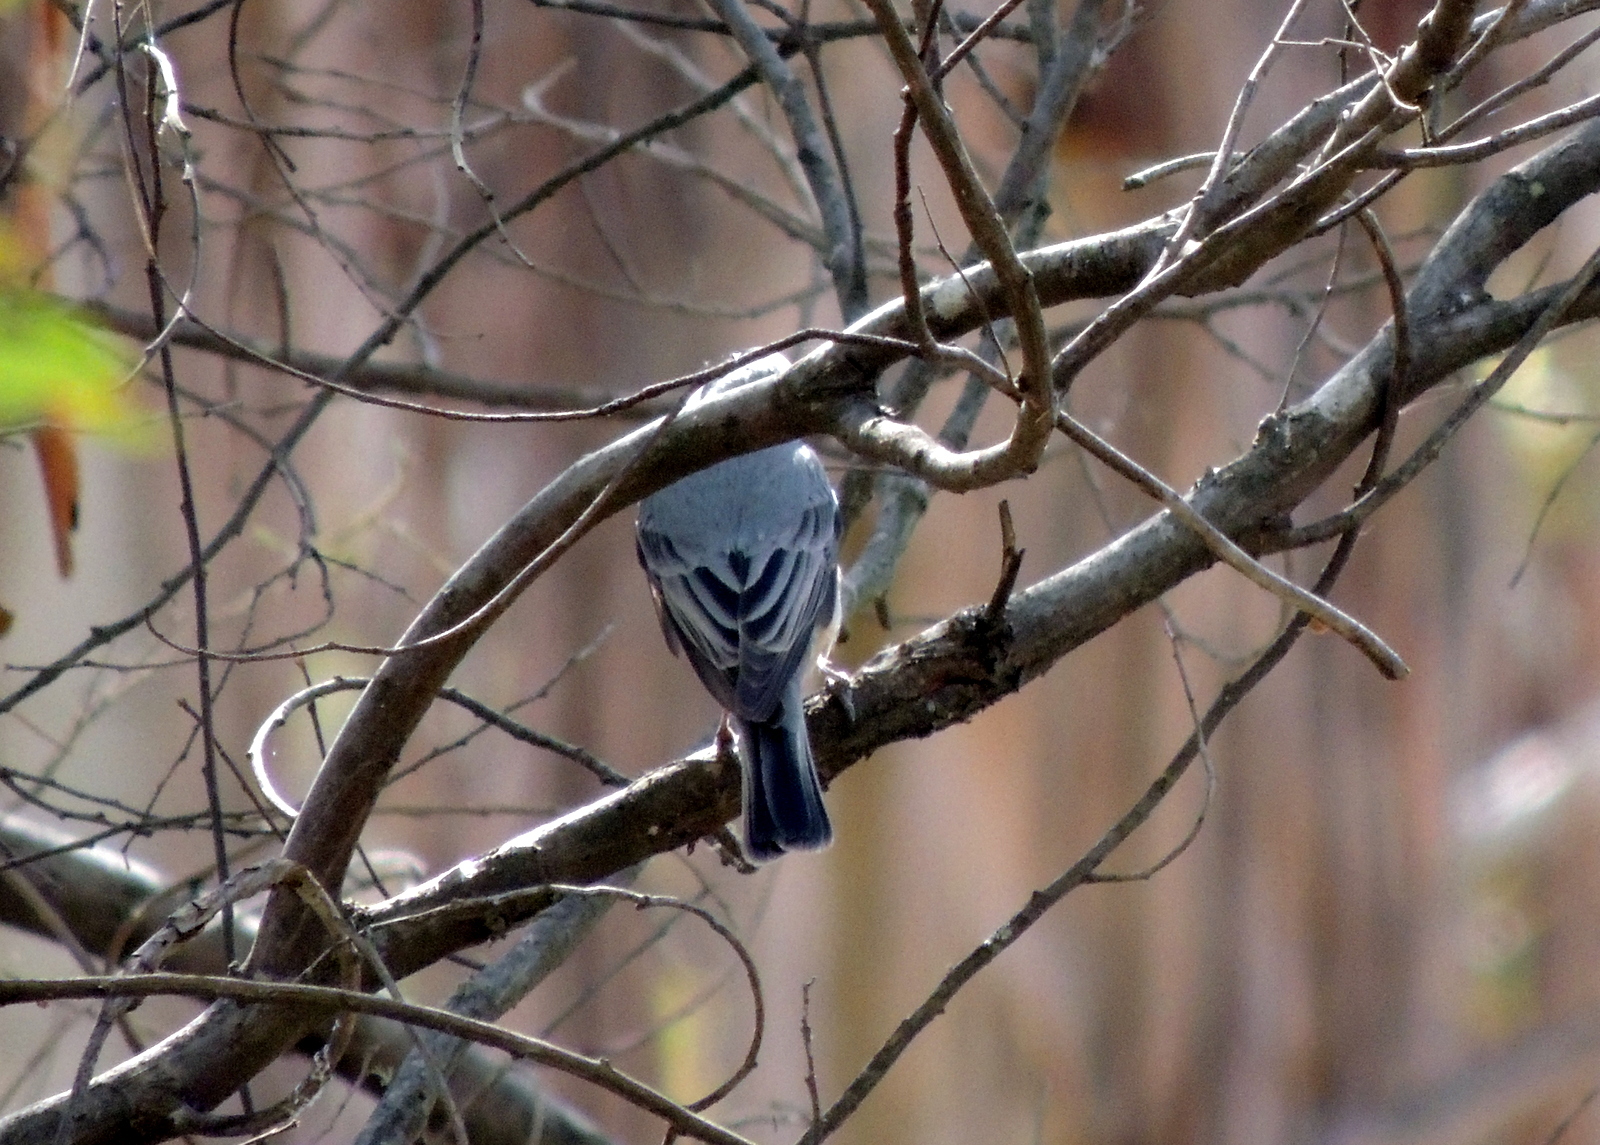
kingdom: Animalia
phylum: Chordata
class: Aves
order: Passeriformes
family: Pachycephalidae
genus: Pachycephala
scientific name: Pachycephala rufiventris
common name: Rufous whistler
